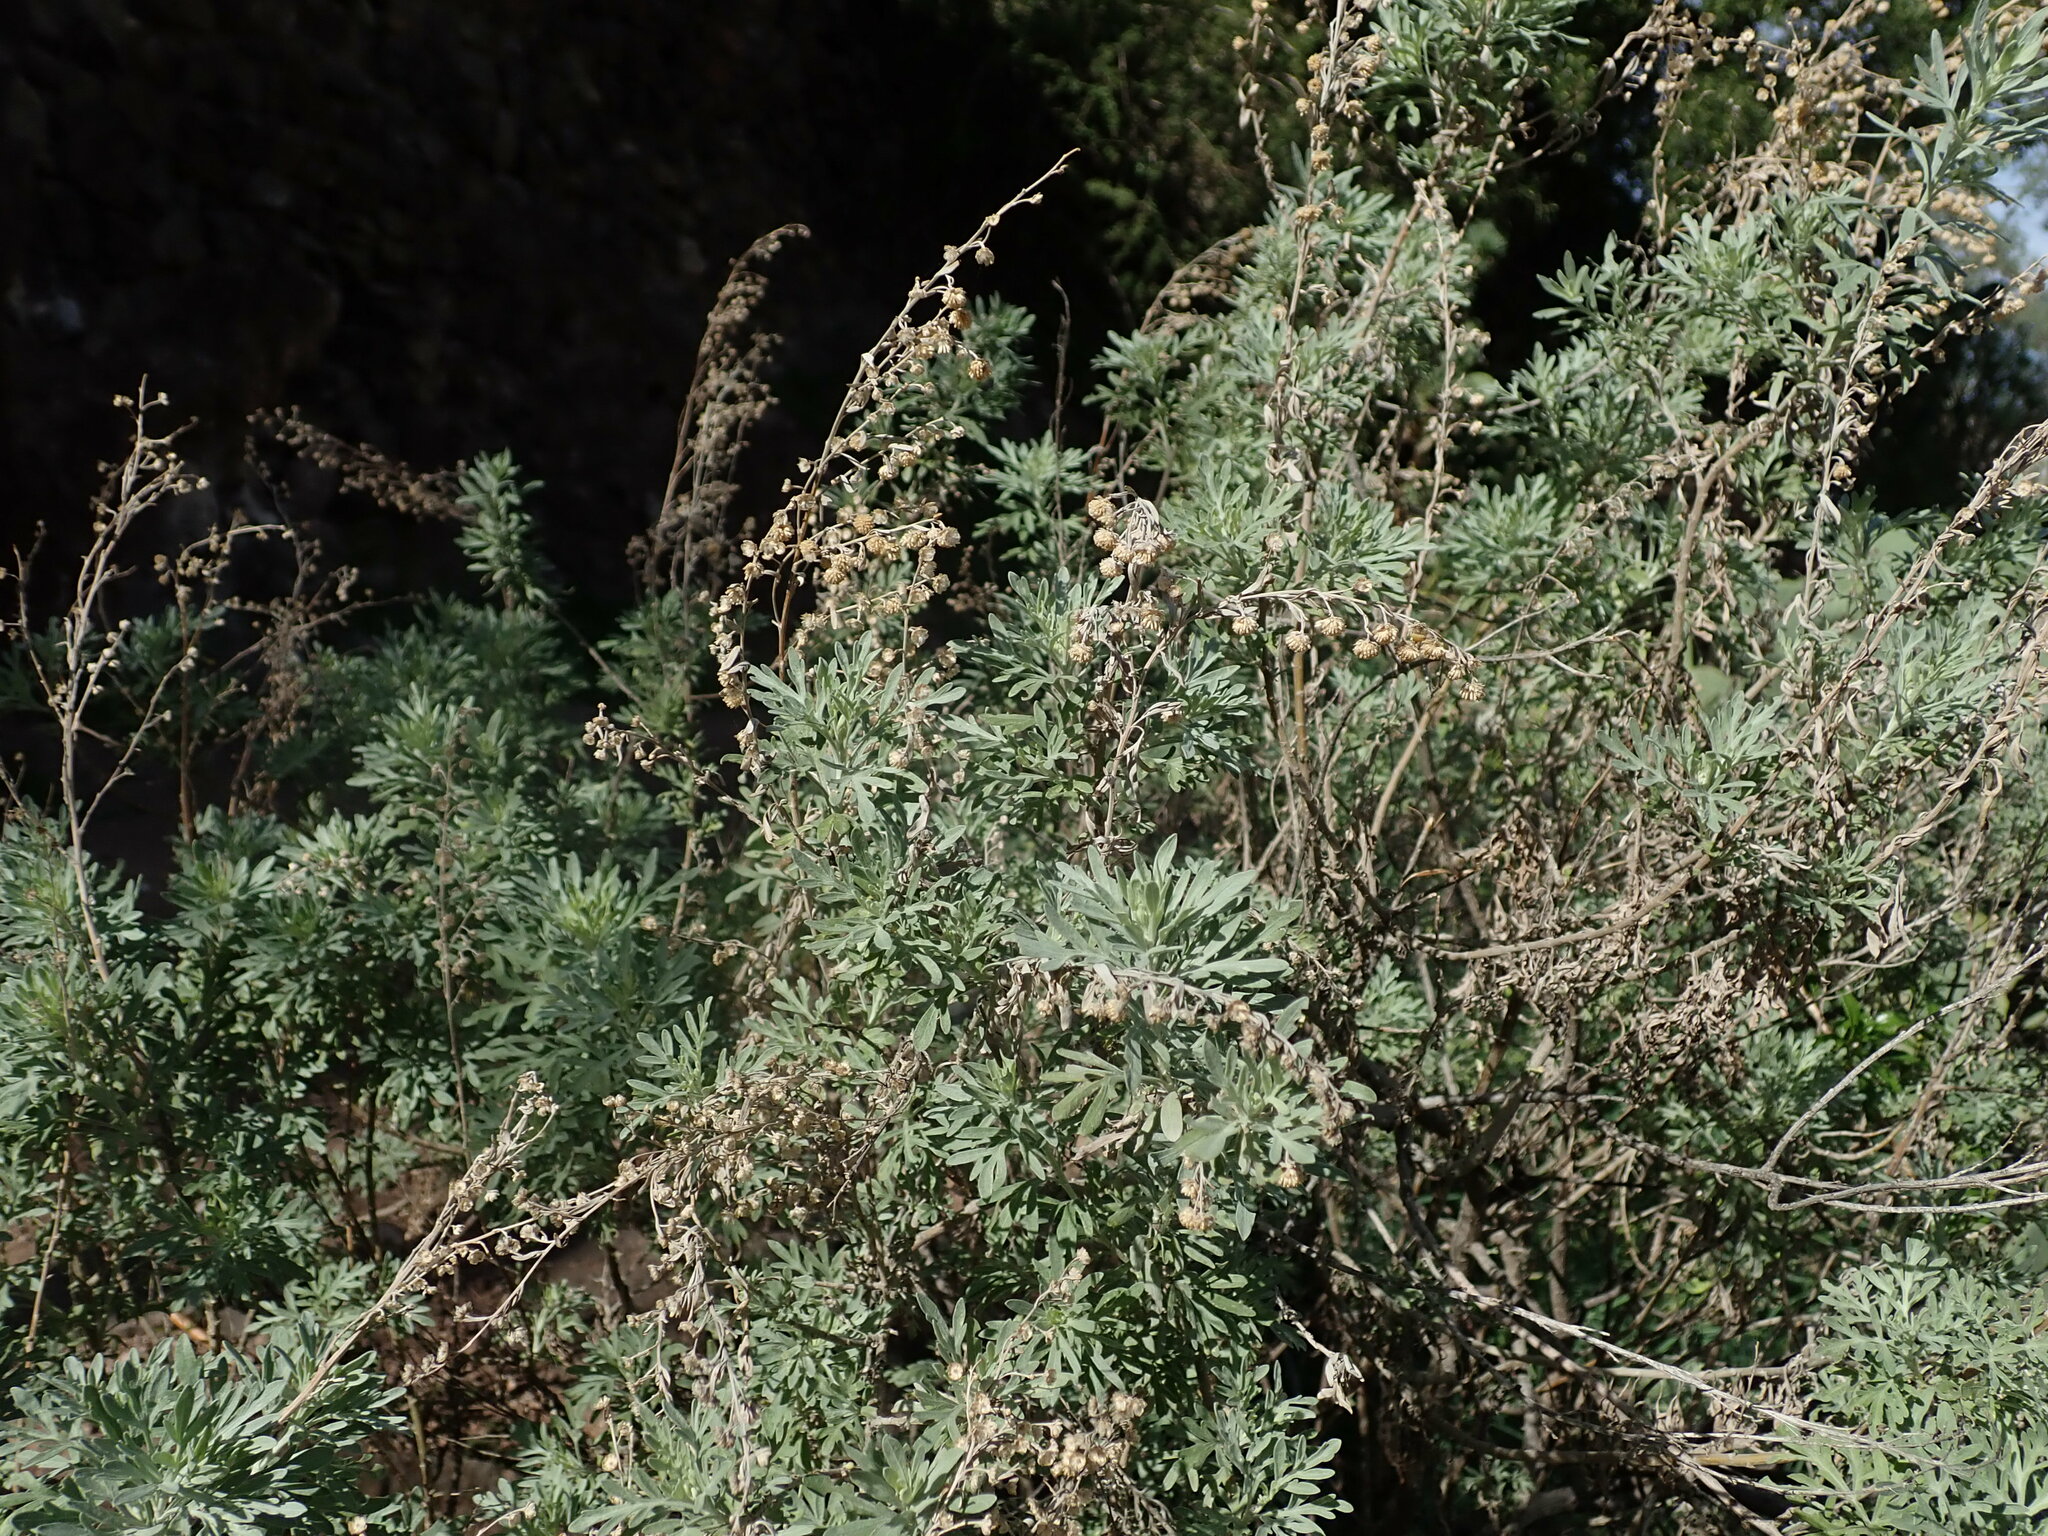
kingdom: Plantae
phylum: Tracheophyta
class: Magnoliopsida
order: Asterales
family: Asteraceae
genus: Artemisia
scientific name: Artemisia thuscula
